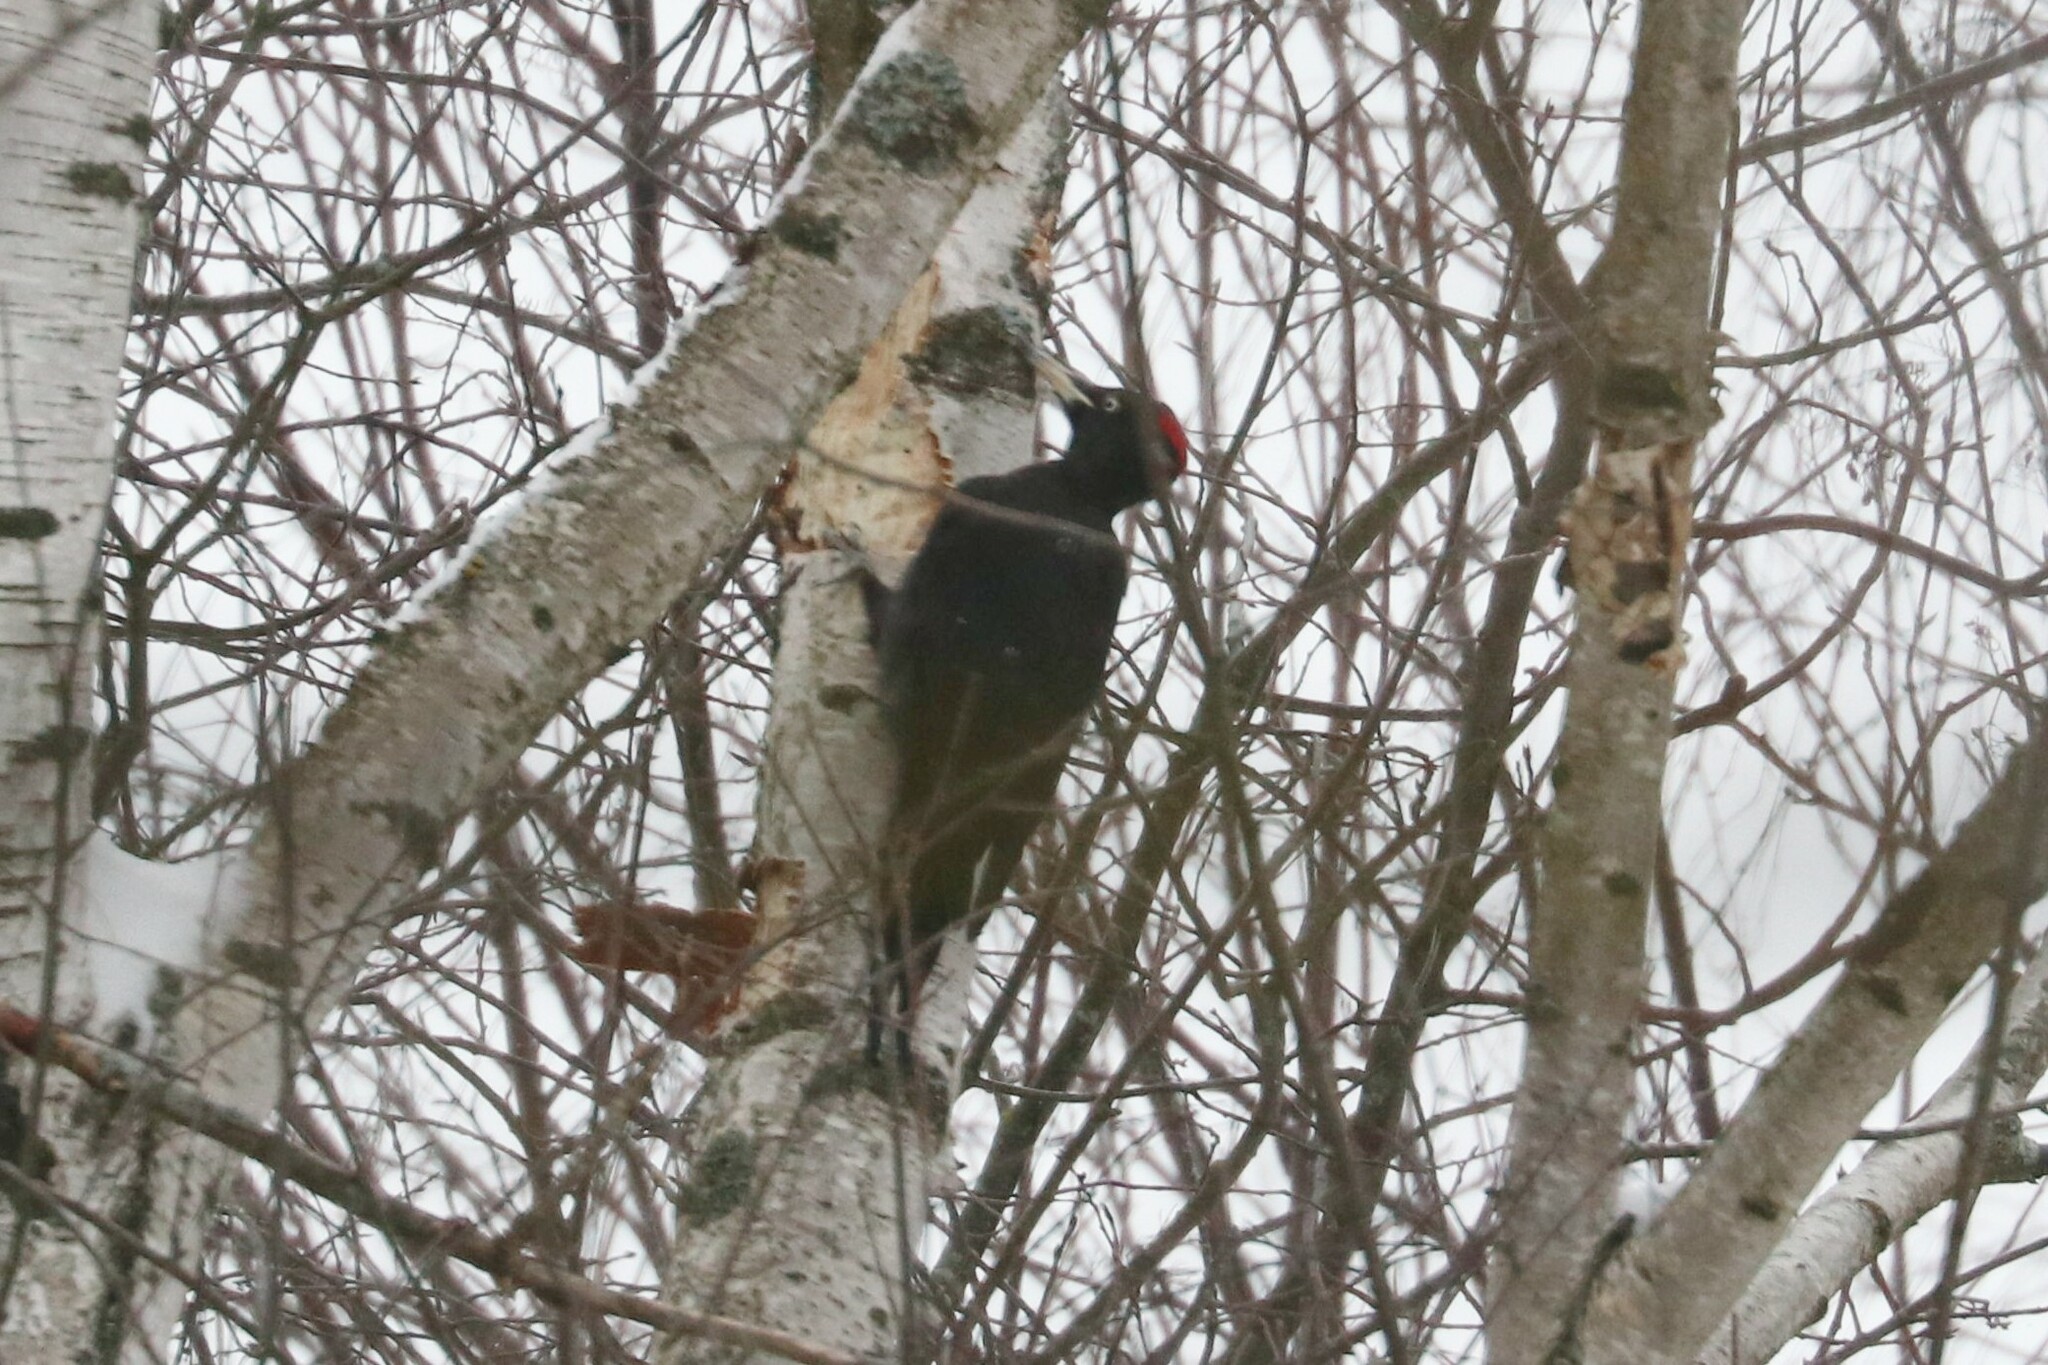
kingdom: Animalia
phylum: Chordata
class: Aves
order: Piciformes
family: Picidae
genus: Dryocopus
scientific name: Dryocopus martius
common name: Black woodpecker
